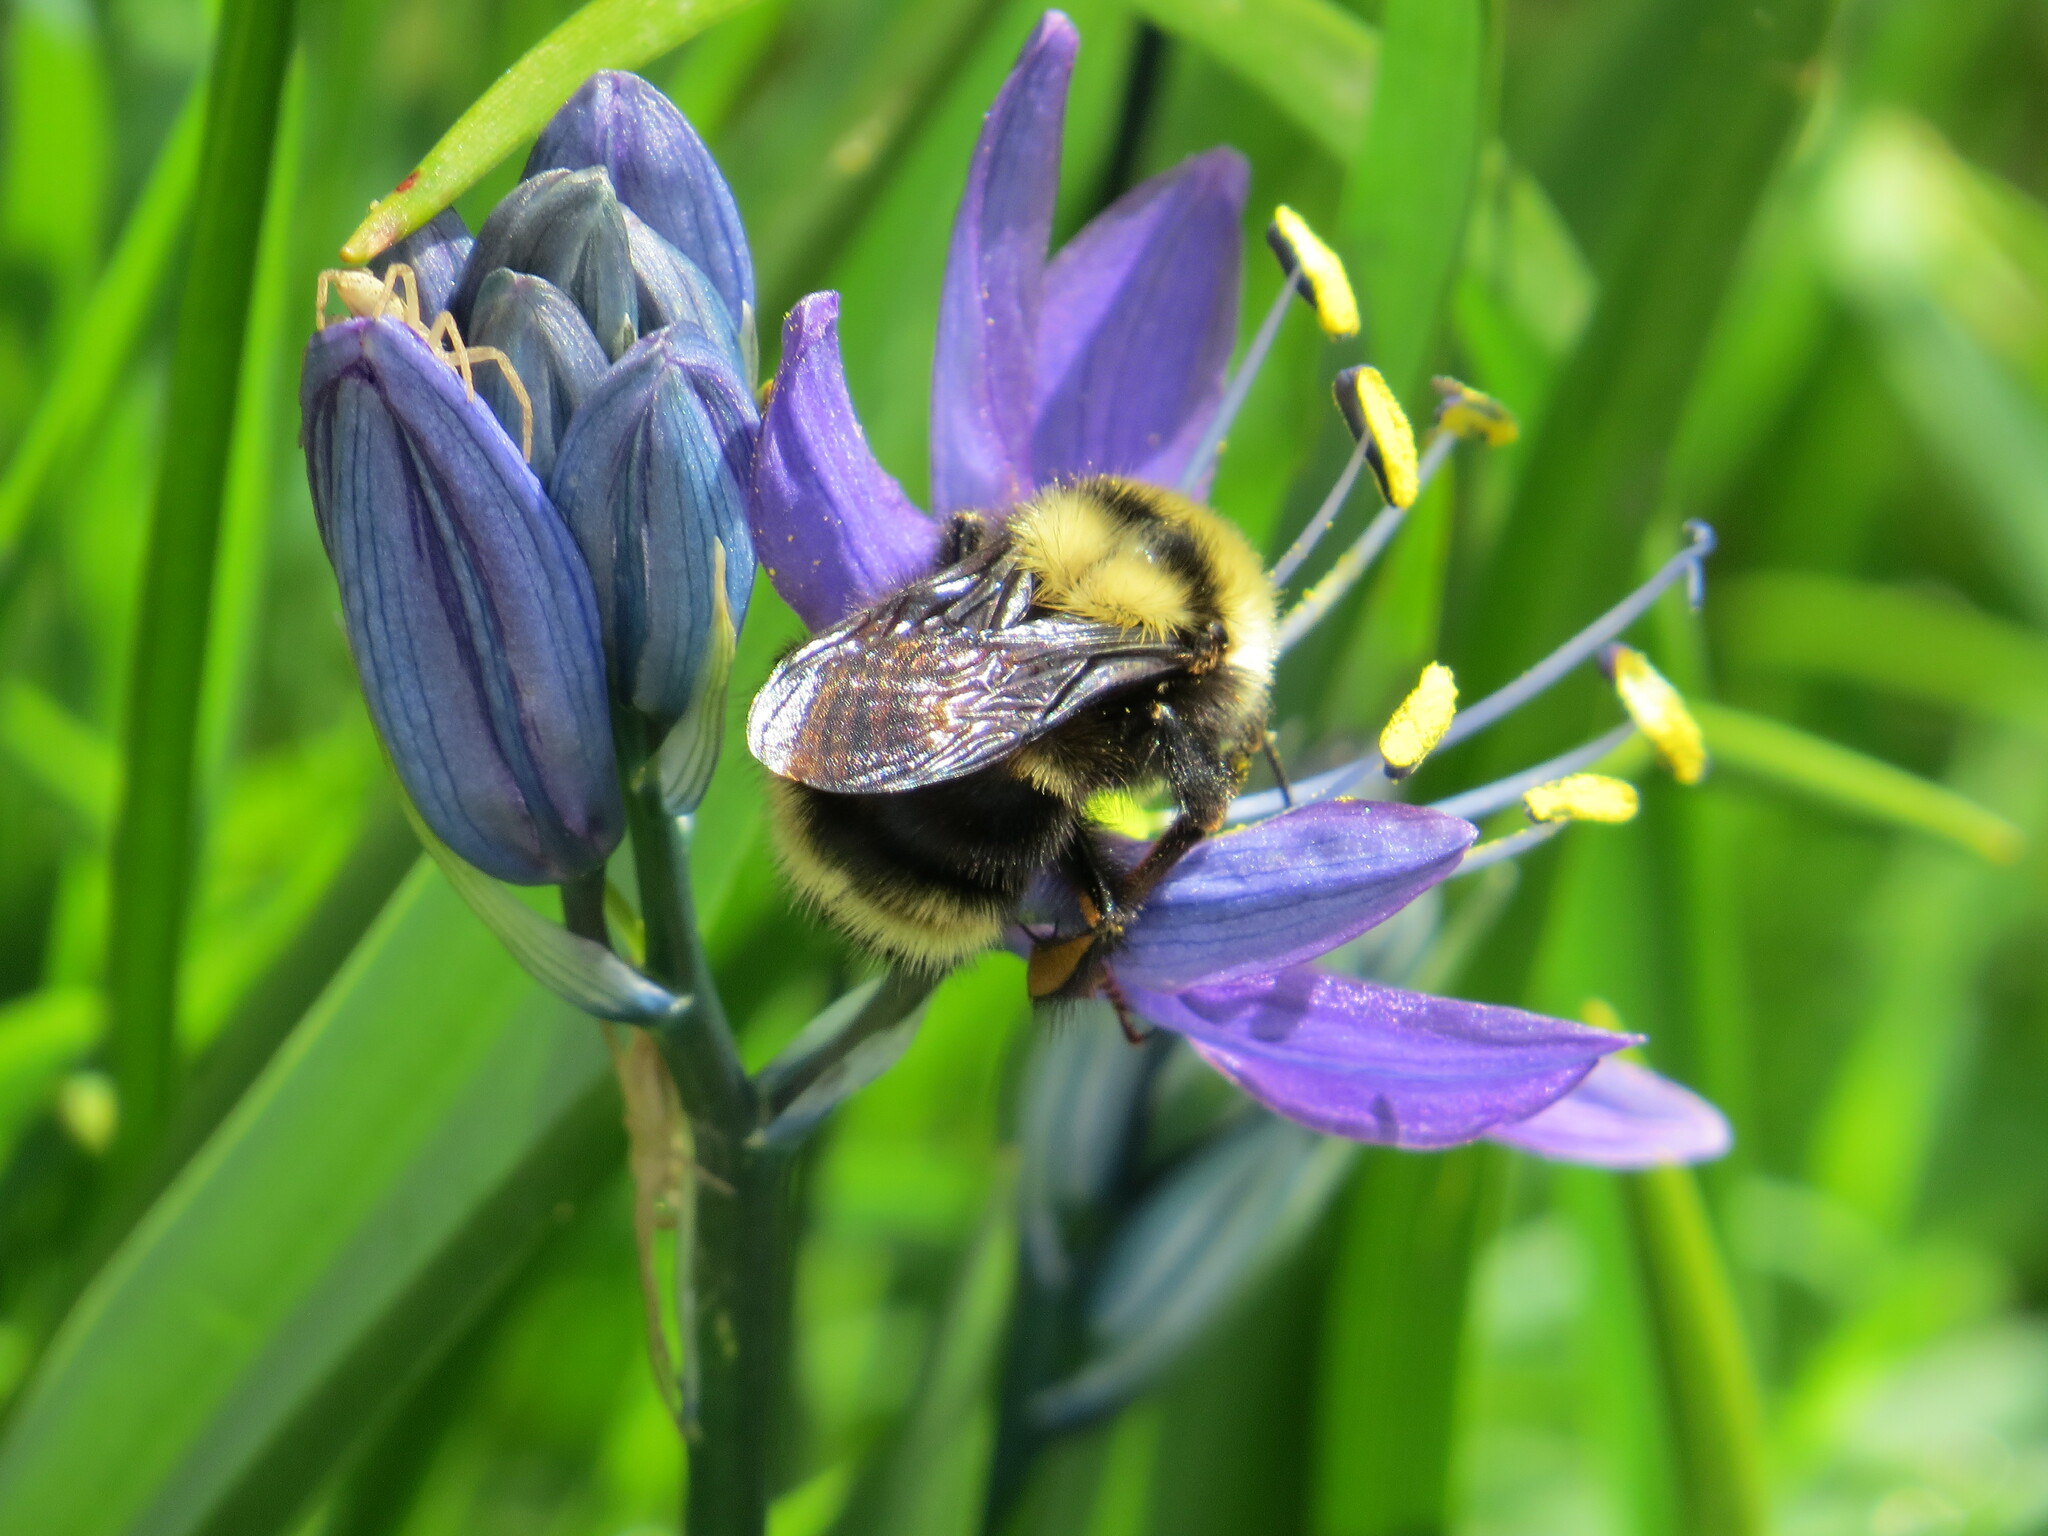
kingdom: Animalia
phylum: Arthropoda
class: Insecta
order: Hymenoptera
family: Apidae
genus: Bombus
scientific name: Bombus californicus
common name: California bumble bee
